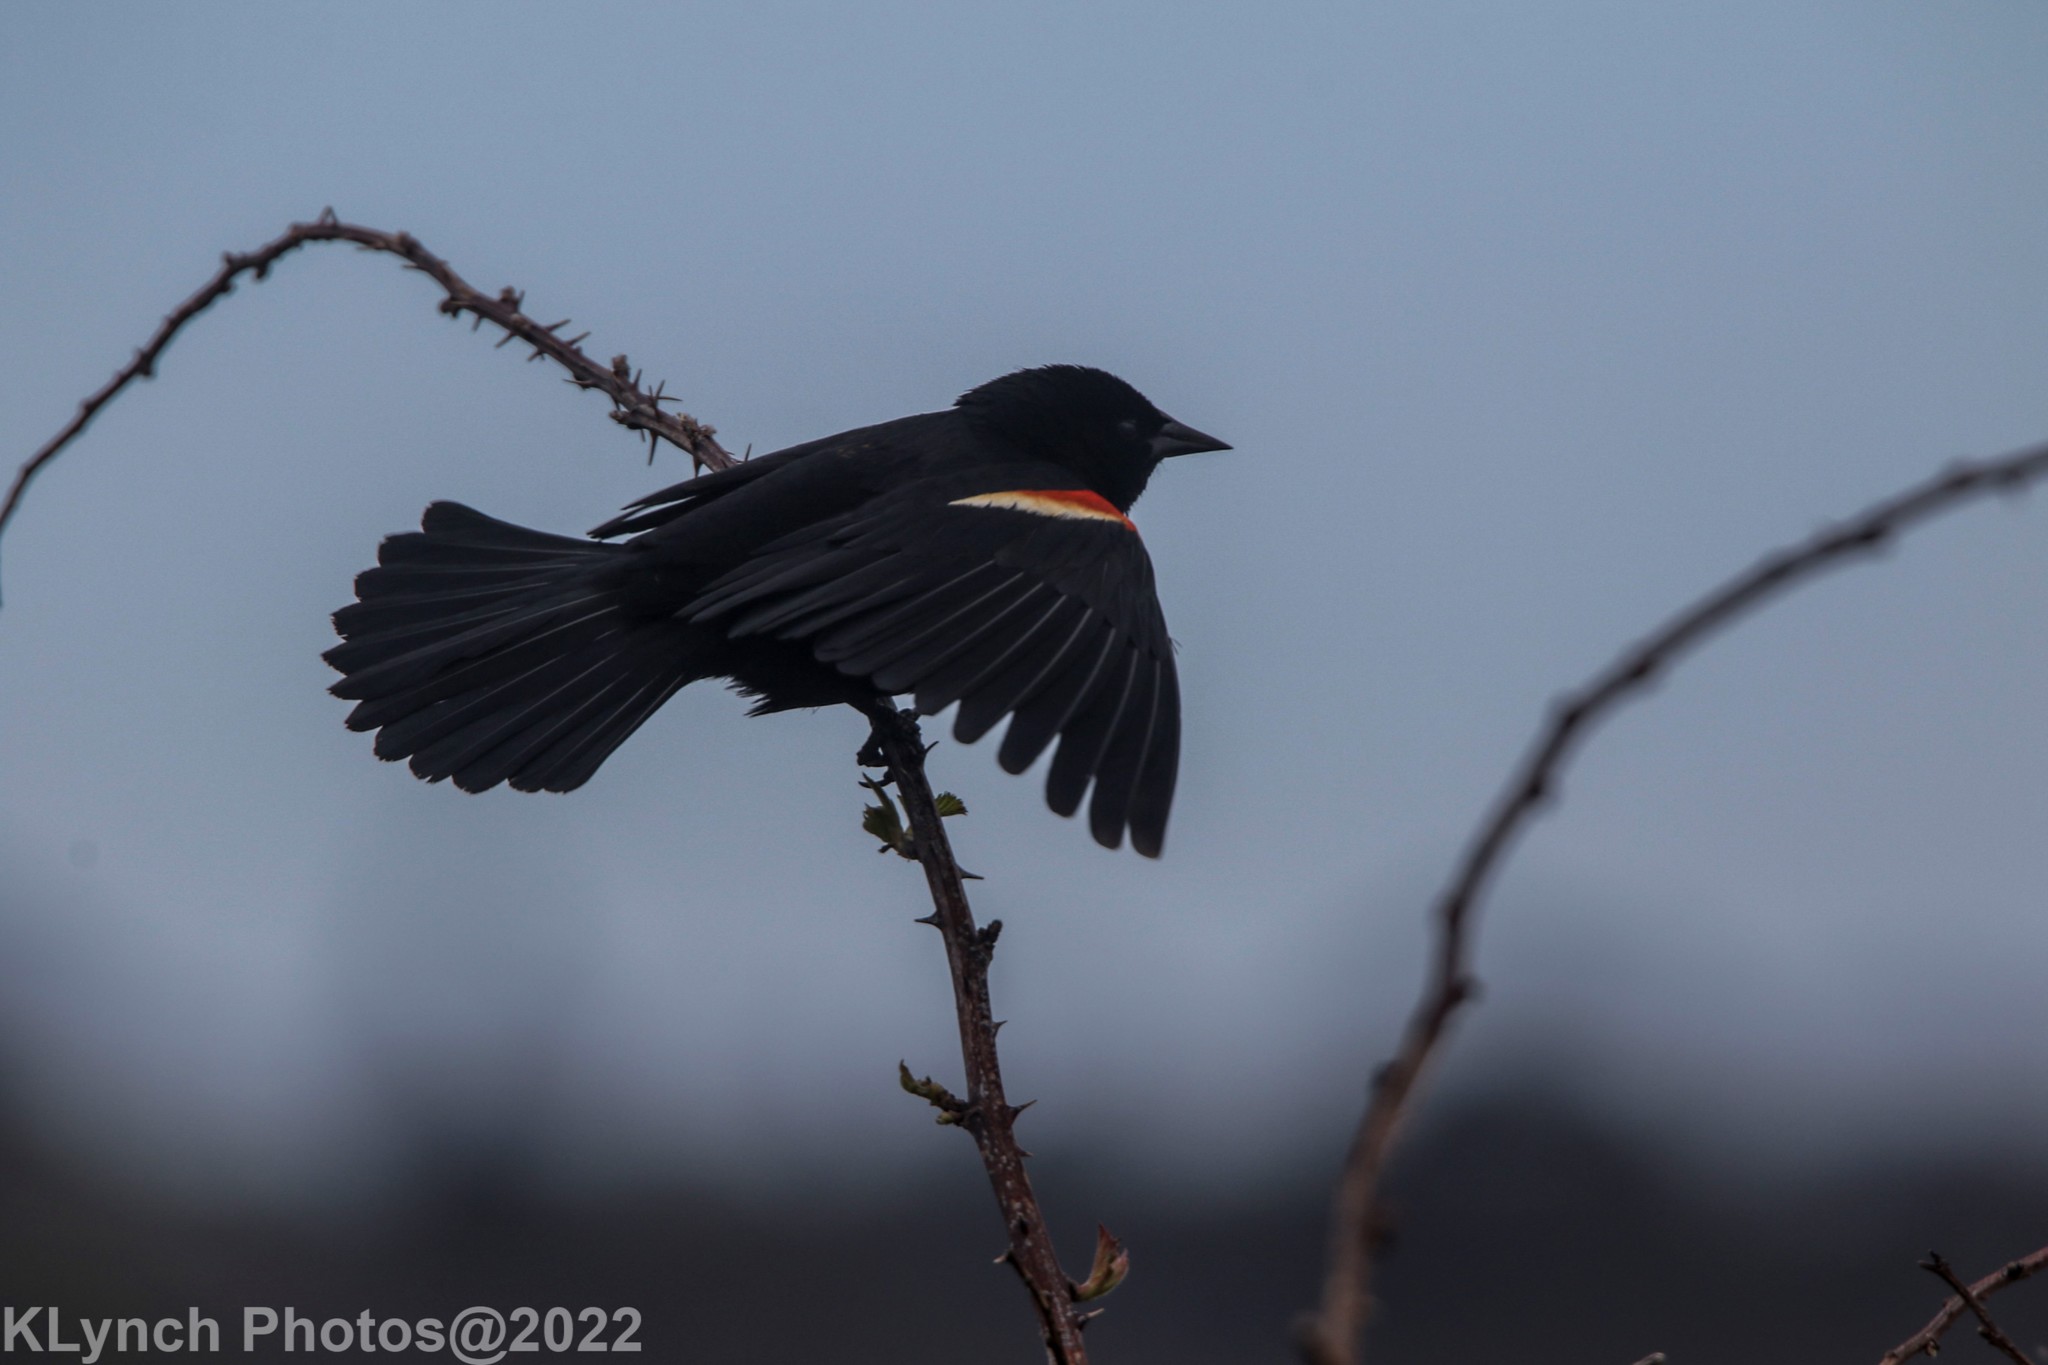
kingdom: Animalia
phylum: Chordata
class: Aves
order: Passeriformes
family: Icteridae
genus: Agelaius
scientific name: Agelaius phoeniceus
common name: Red-winged blackbird
